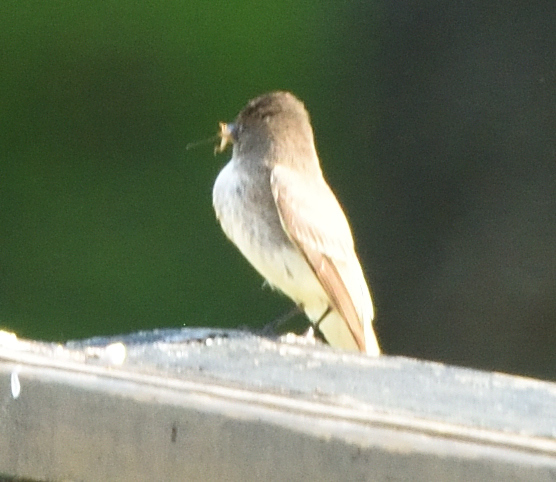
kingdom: Animalia
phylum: Chordata
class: Aves
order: Passeriformes
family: Tyrannidae
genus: Sayornis
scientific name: Sayornis phoebe
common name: Eastern phoebe
